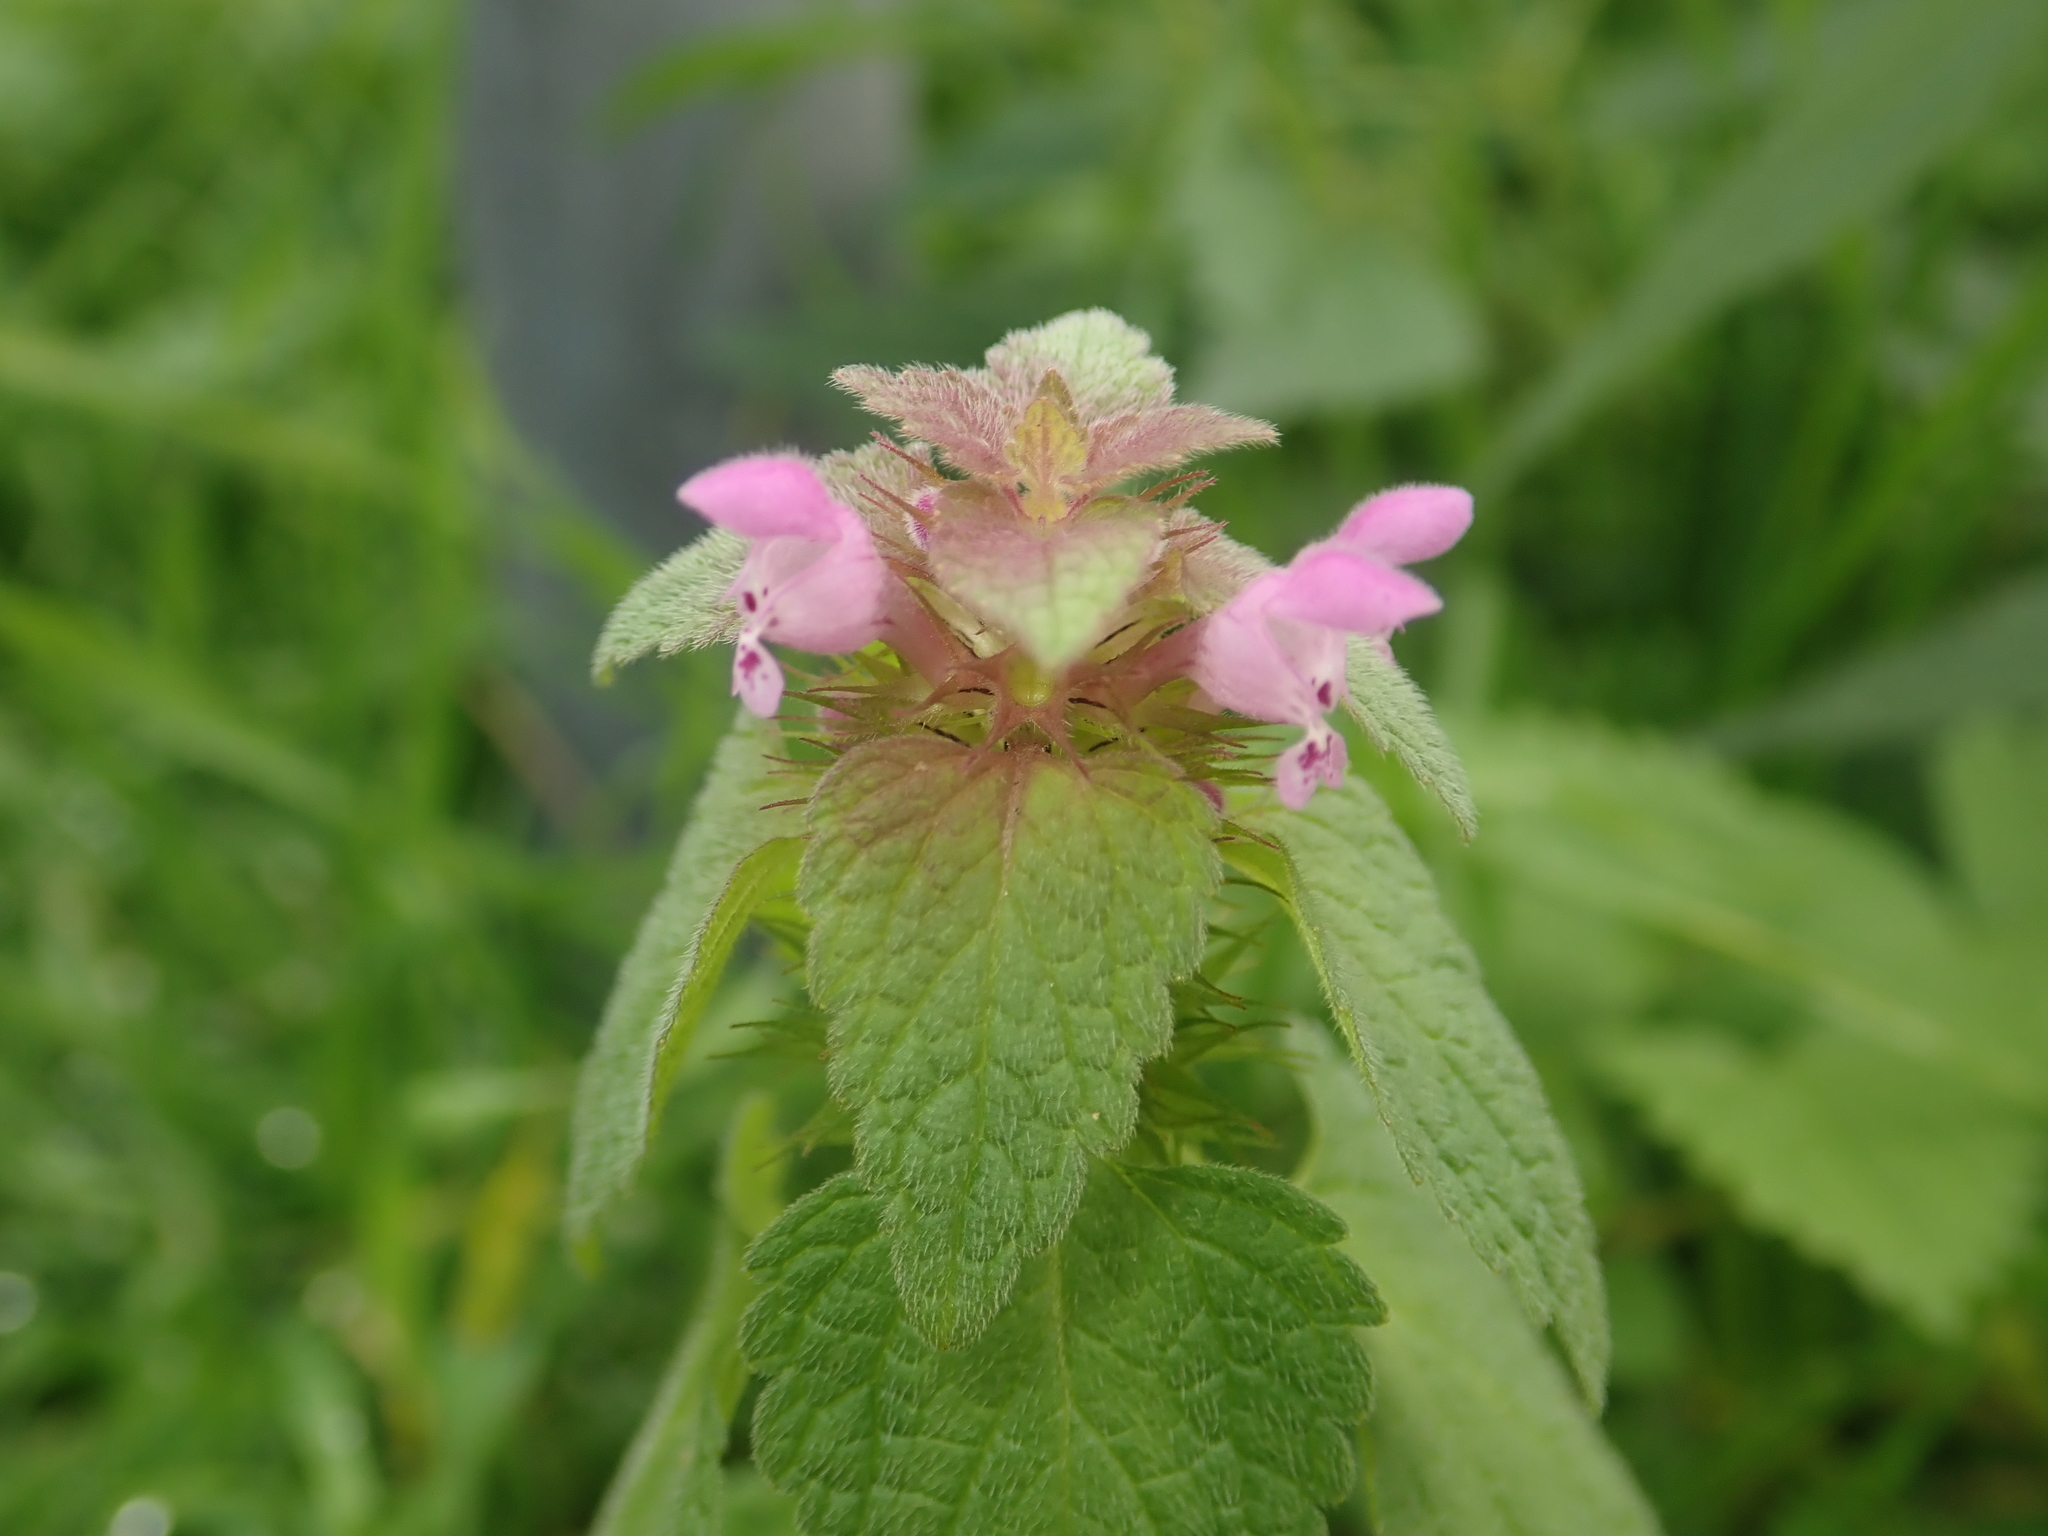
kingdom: Plantae
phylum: Tracheophyta
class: Magnoliopsida
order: Lamiales
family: Lamiaceae
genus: Lamium
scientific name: Lamium purpureum
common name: Red dead-nettle
